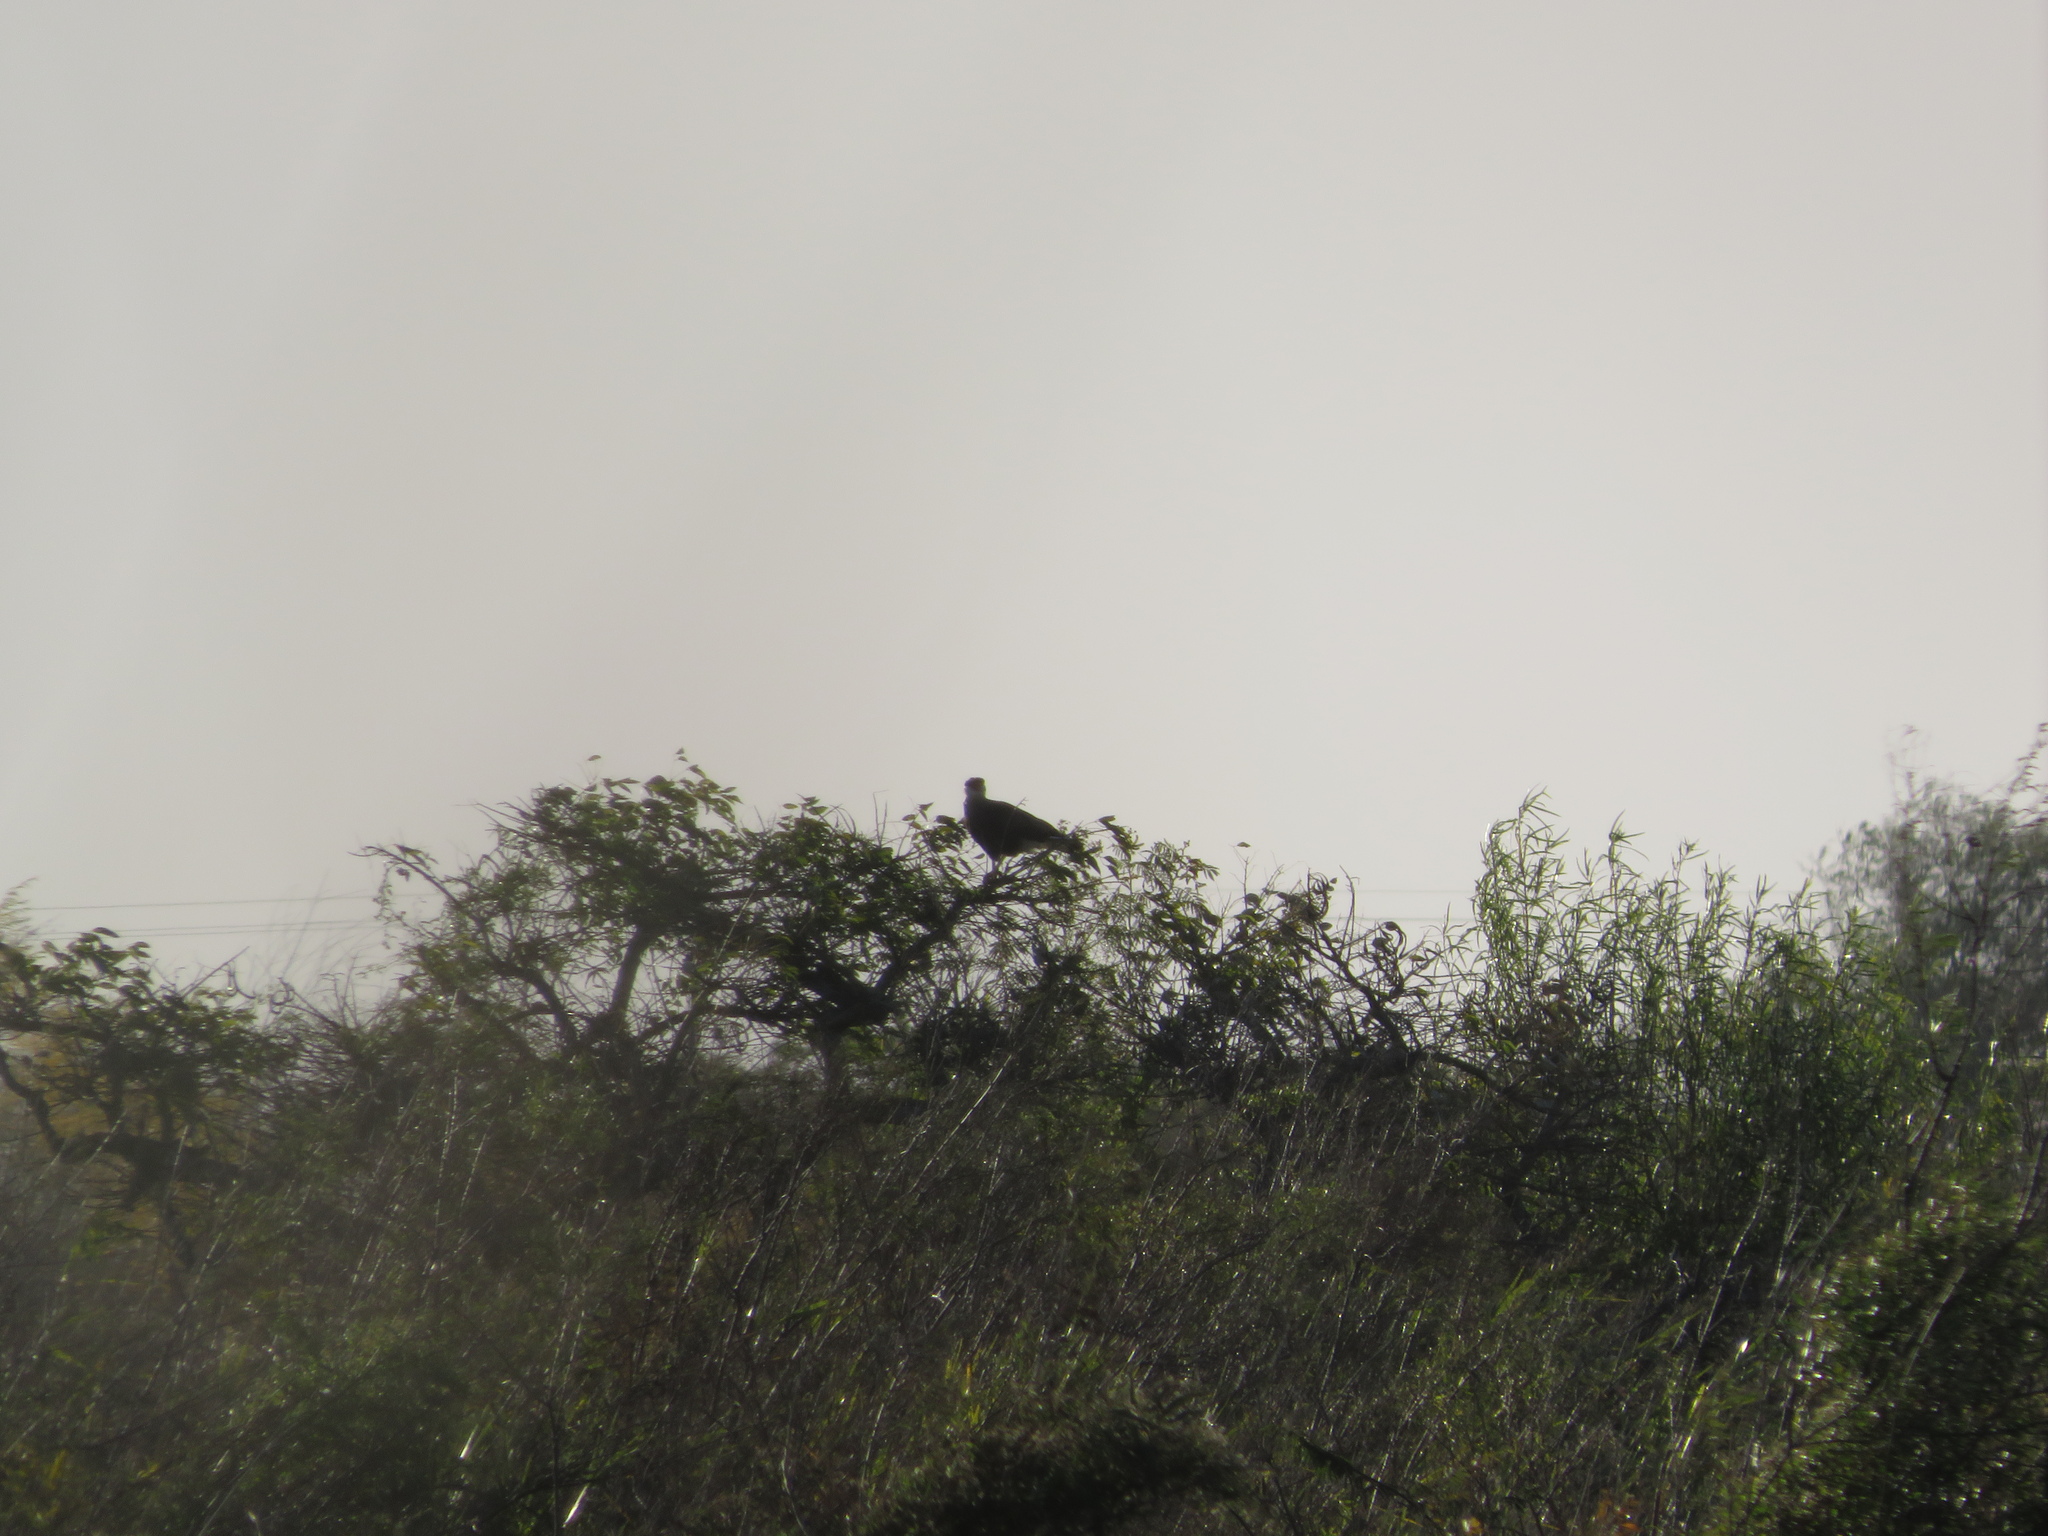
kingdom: Animalia
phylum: Chordata
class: Aves
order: Falconiformes
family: Falconidae
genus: Caracara
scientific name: Caracara plancus
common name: Southern caracara
